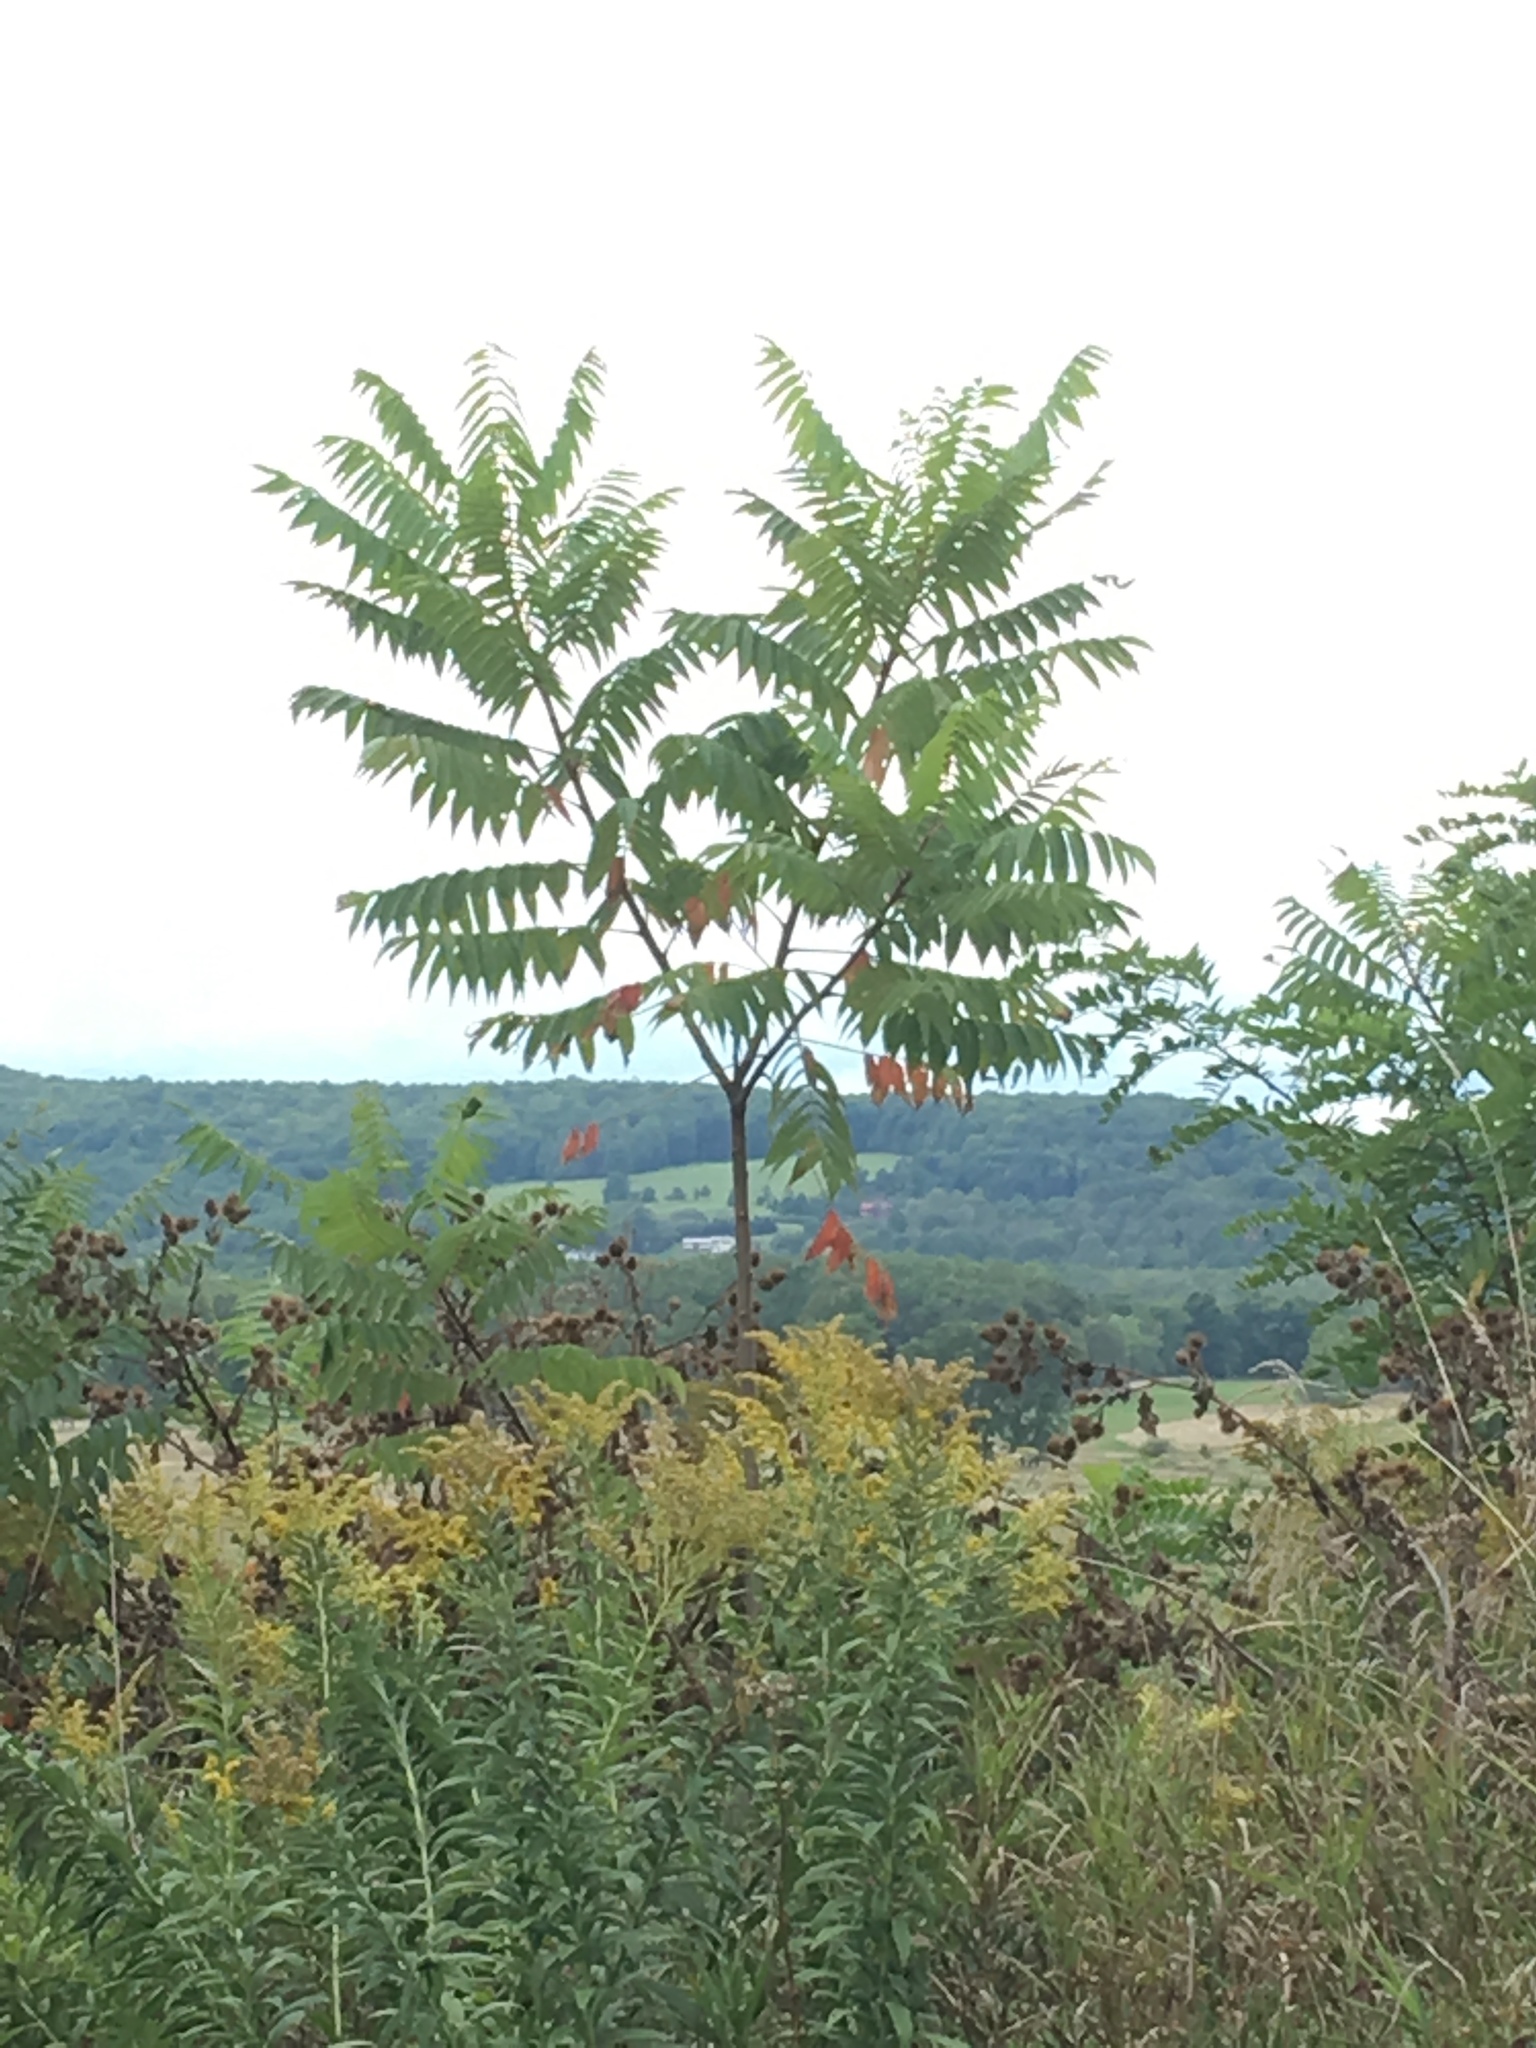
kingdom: Plantae
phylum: Tracheophyta
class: Magnoliopsida
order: Sapindales
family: Anacardiaceae
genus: Rhus
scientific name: Rhus typhina
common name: Staghorn sumac
